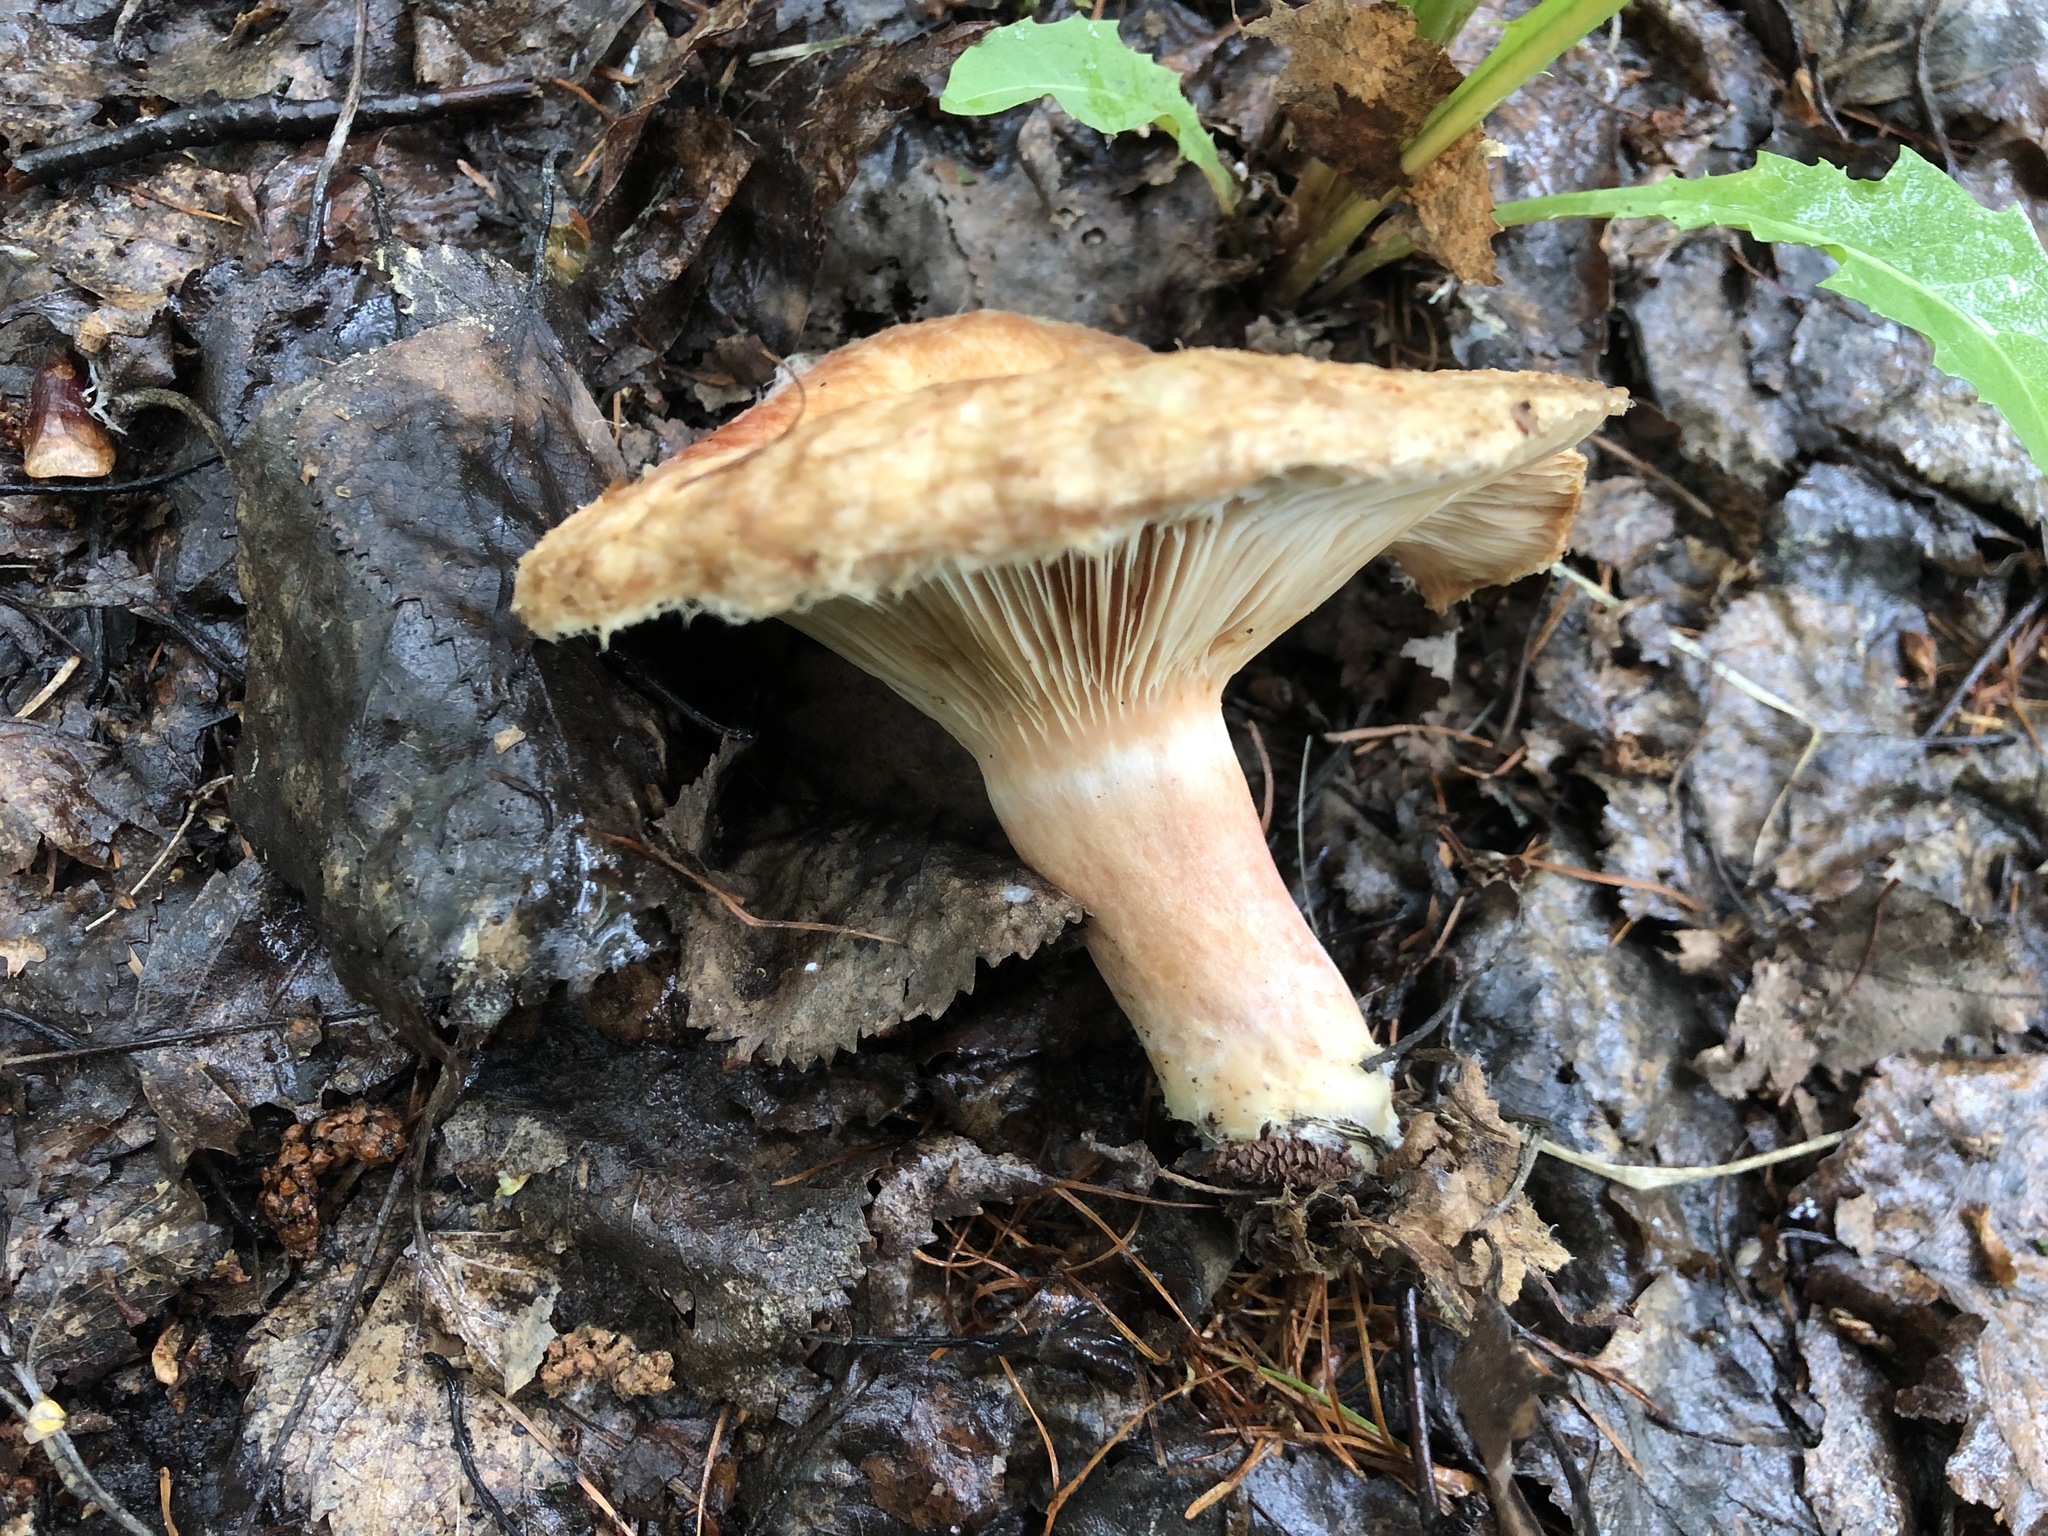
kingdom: Fungi
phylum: Basidiomycota
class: Agaricomycetes
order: Russulales
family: Russulaceae
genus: Lactarius
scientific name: Lactarius torminosus
